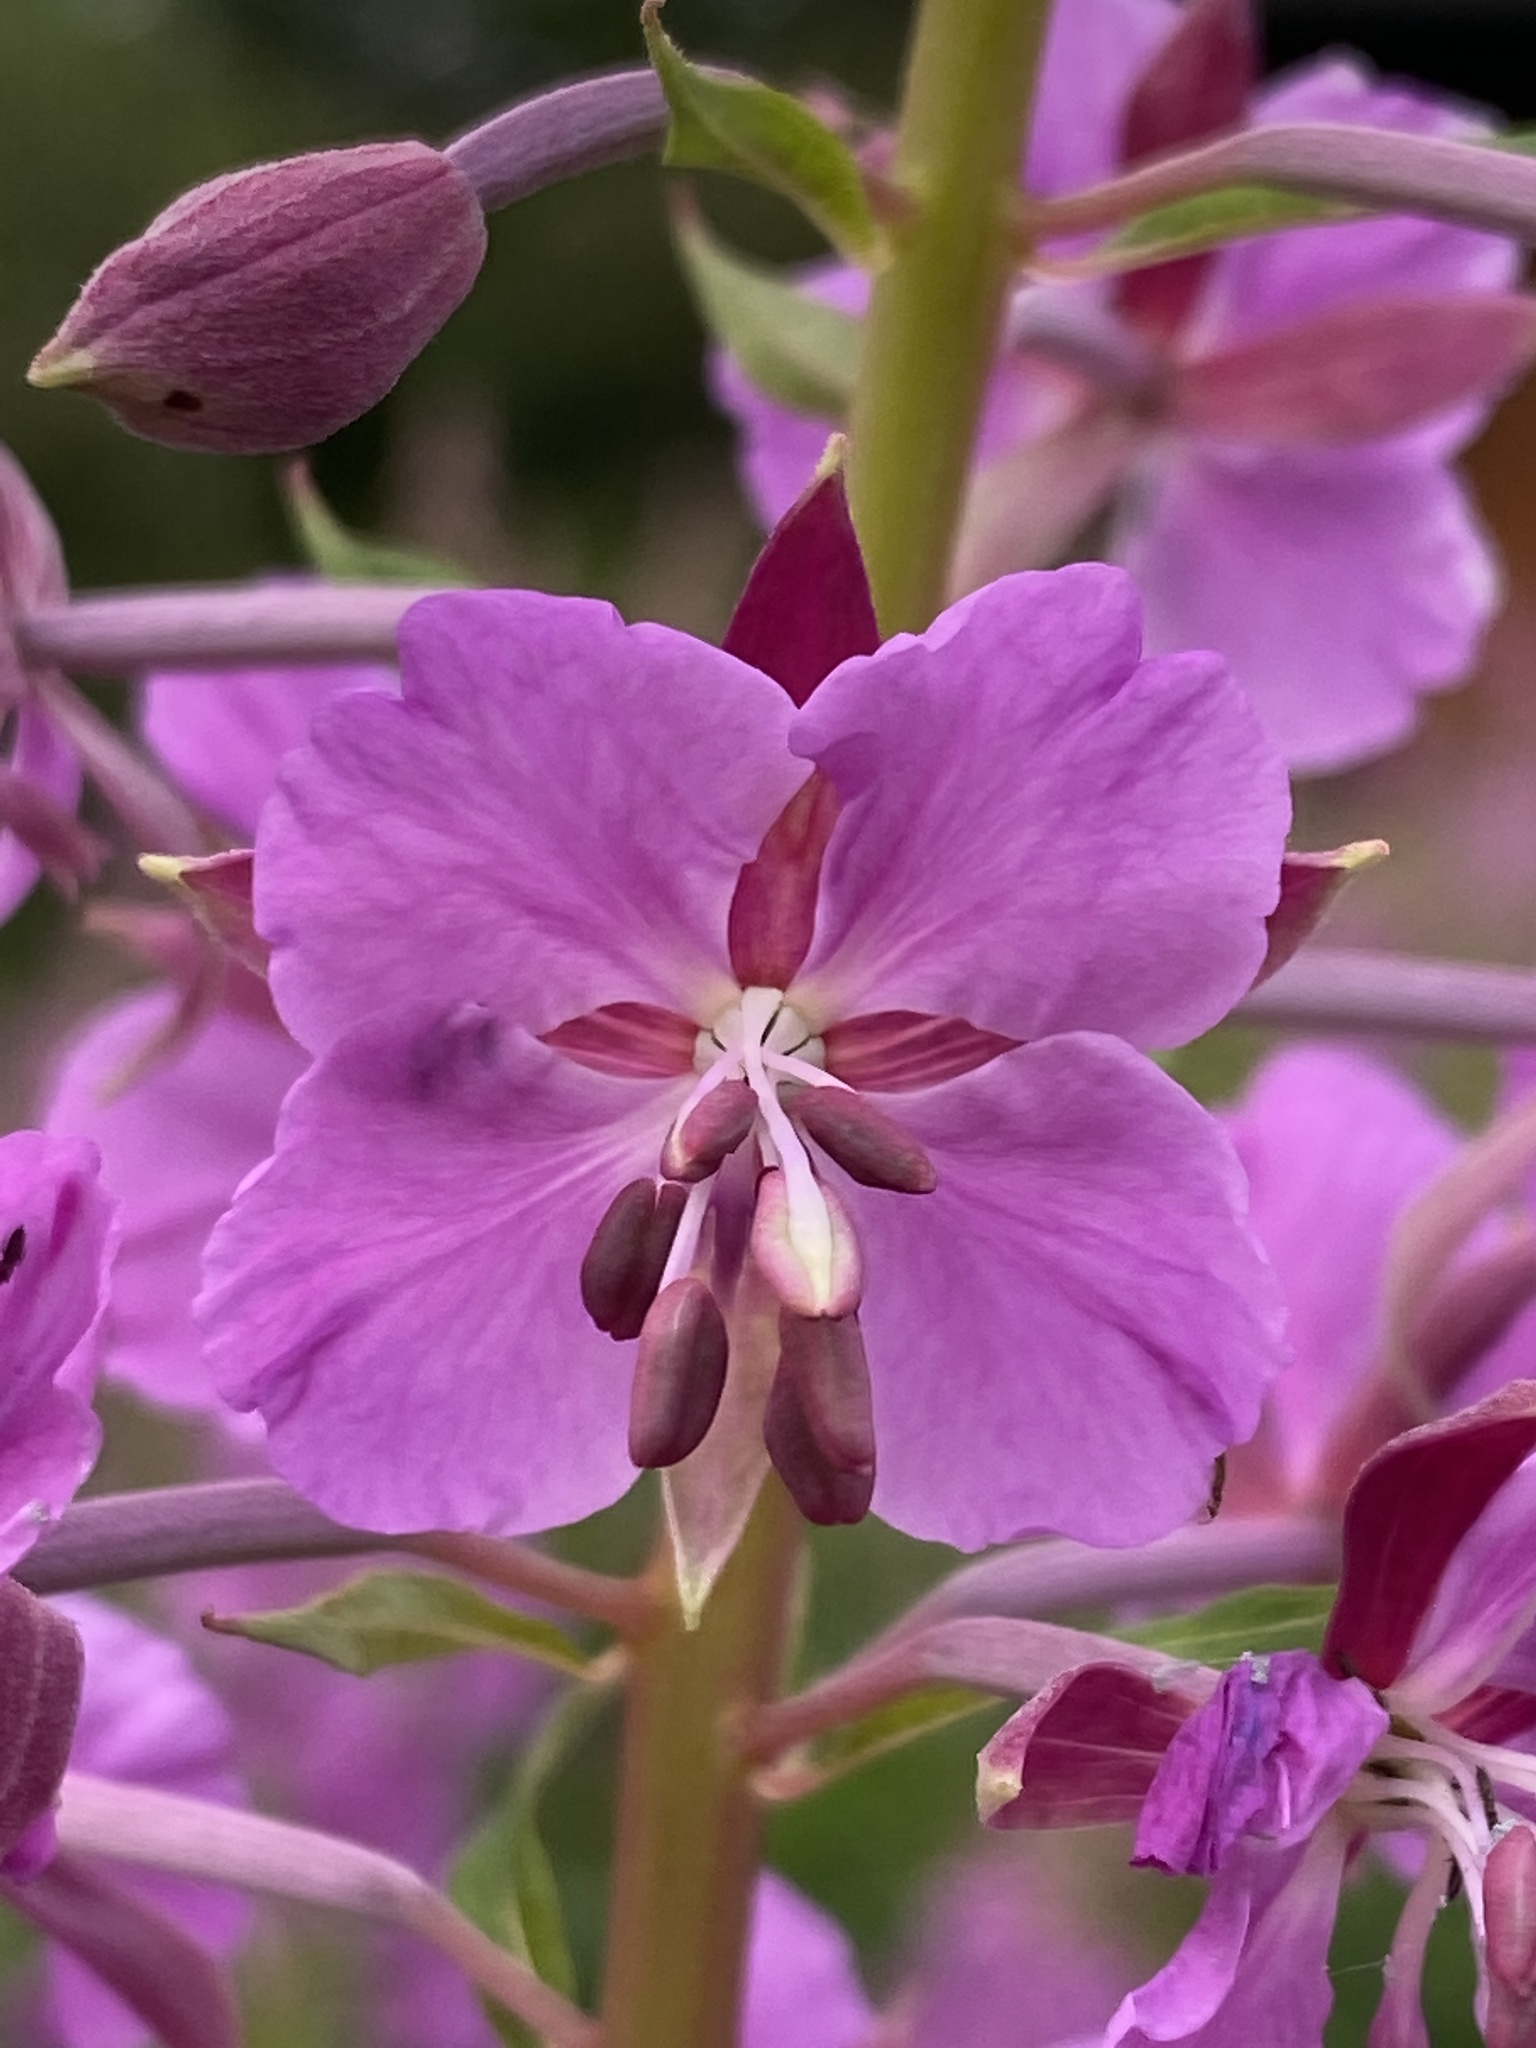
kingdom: Plantae
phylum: Tracheophyta
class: Magnoliopsida
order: Myrtales
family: Onagraceae
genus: Chamaenerion
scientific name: Chamaenerion angustifolium
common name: Fireweed
